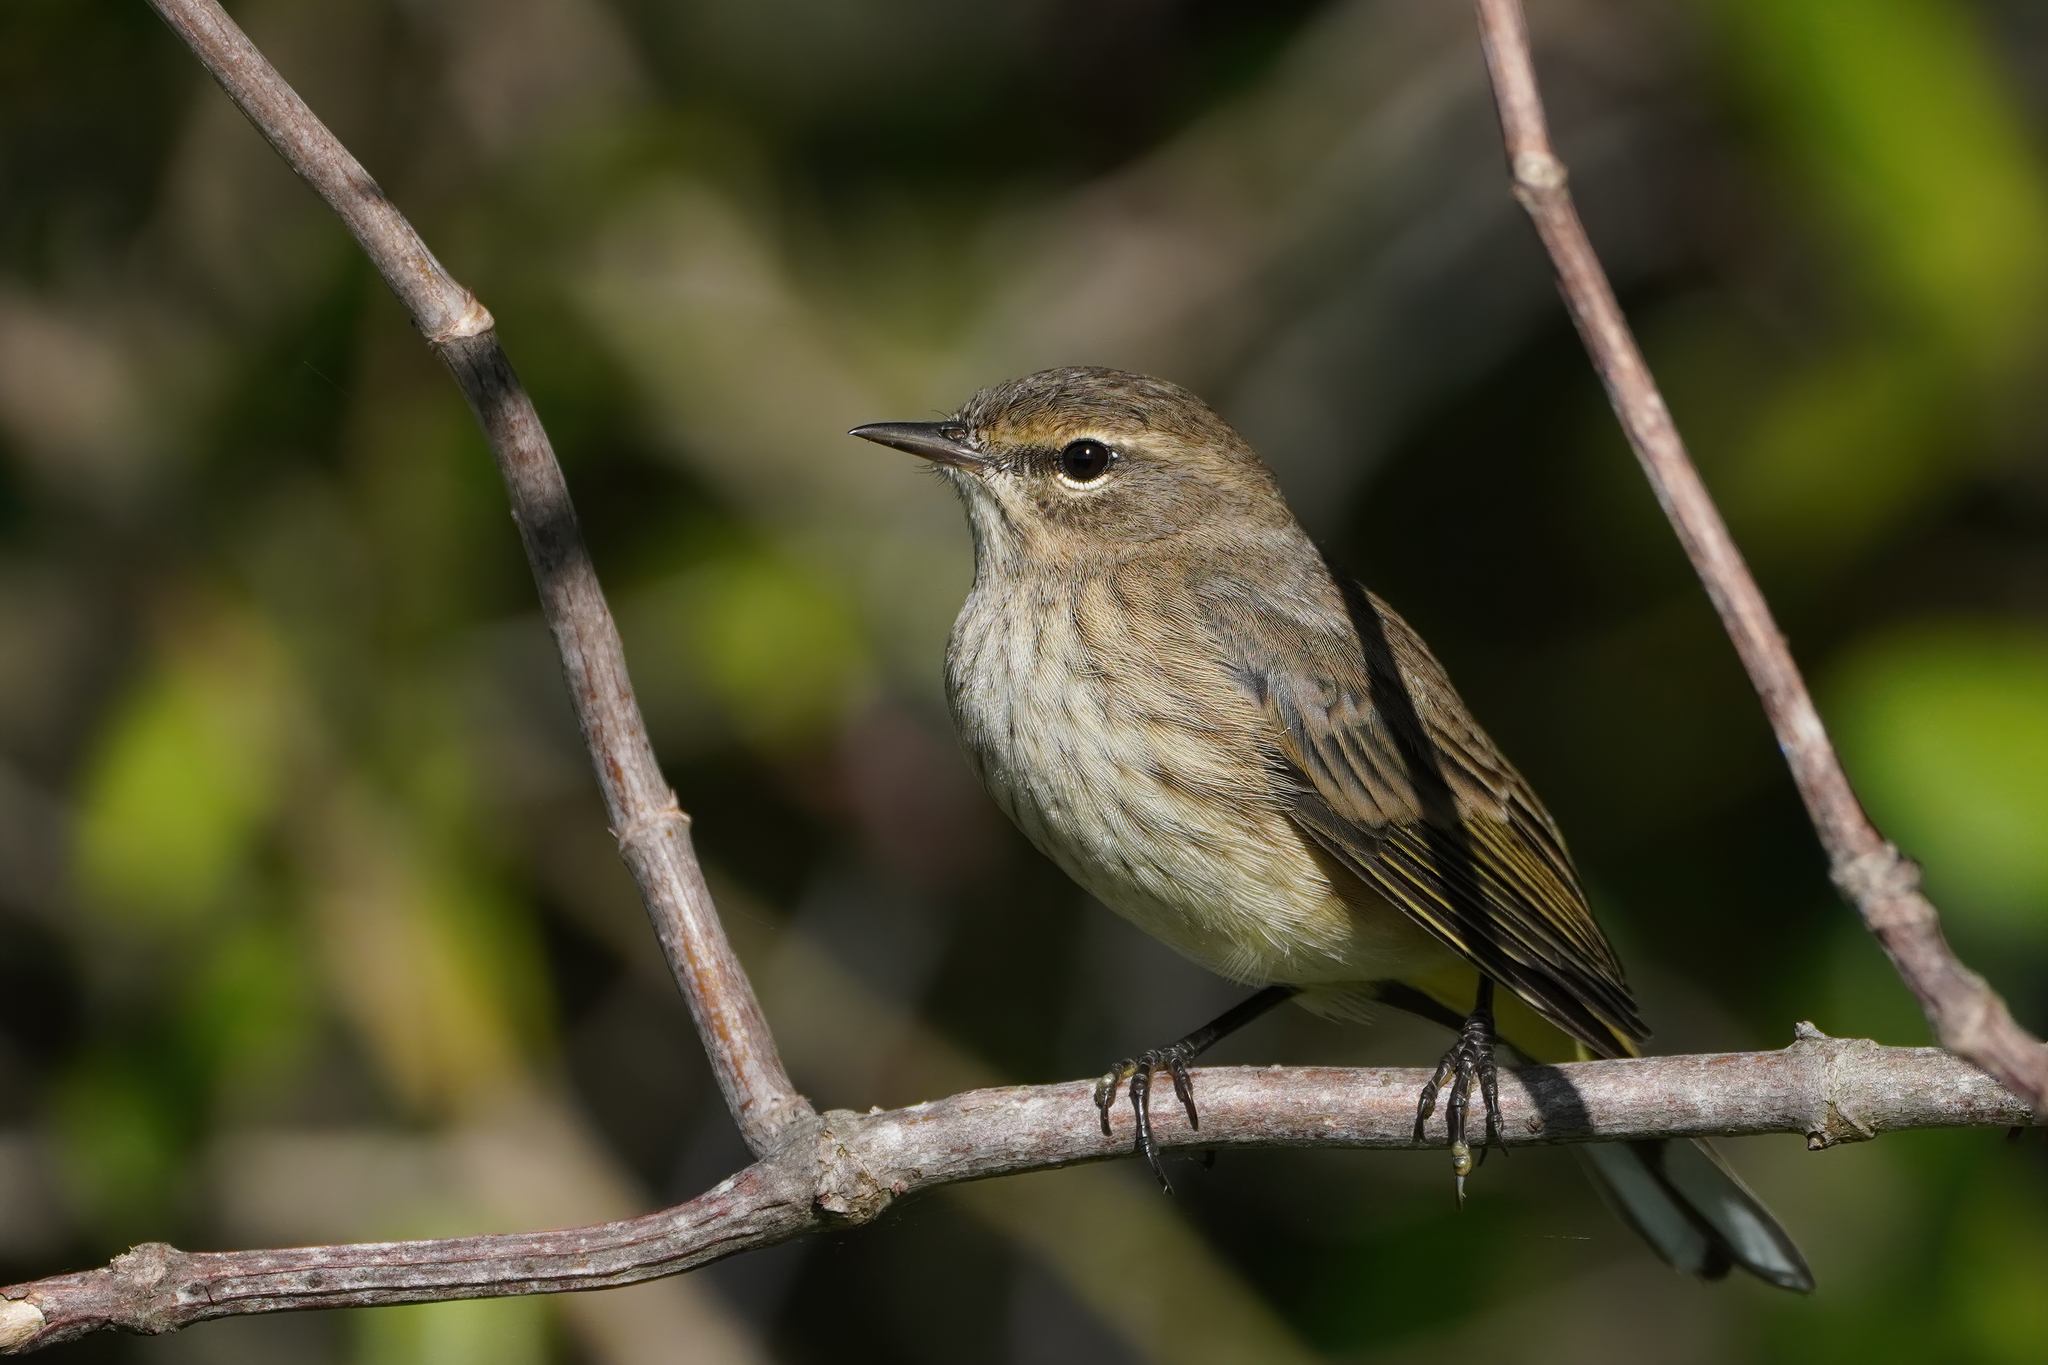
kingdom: Animalia
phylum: Chordata
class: Aves
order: Passeriformes
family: Parulidae
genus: Setophaga
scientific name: Setophaga palmarum
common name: Palm warbler
